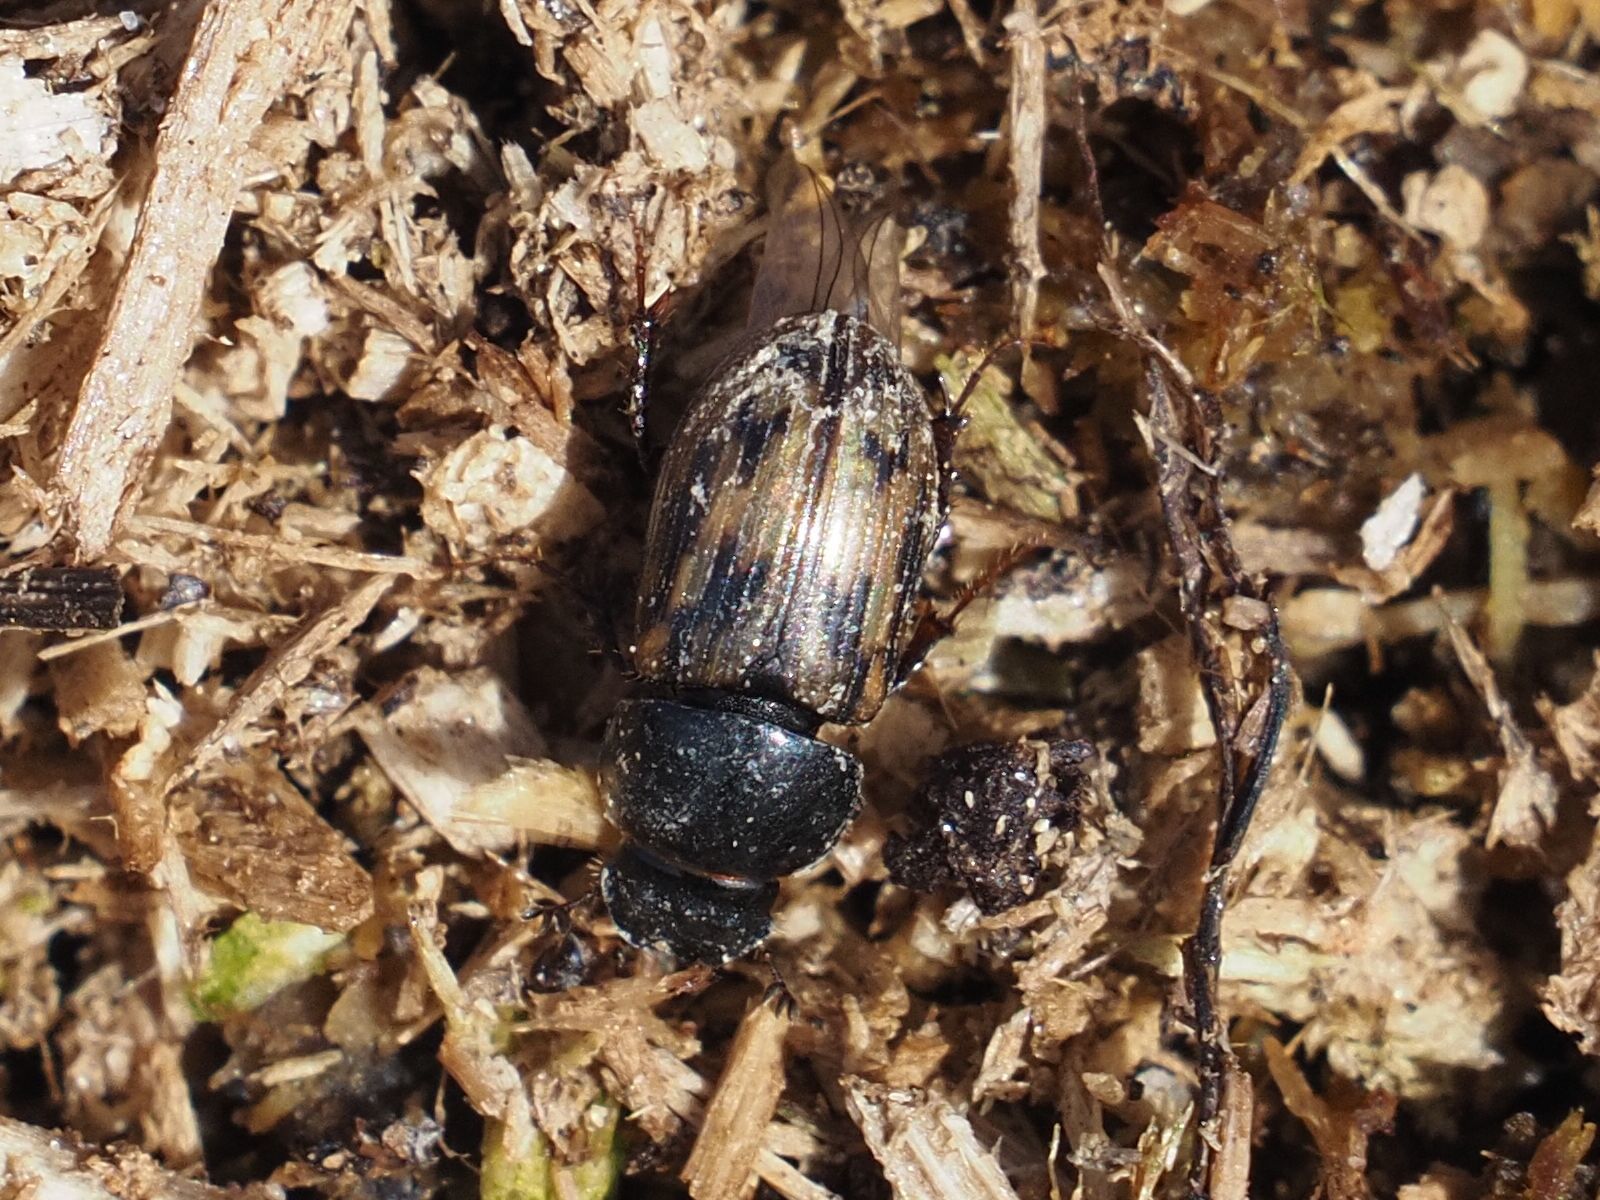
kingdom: Animalia
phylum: Arthropoda
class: Insecta
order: Coleoptera
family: Scarabaeidae
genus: Chilothorax
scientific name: Chilothorax distinctus
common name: Maculated dung beetle
